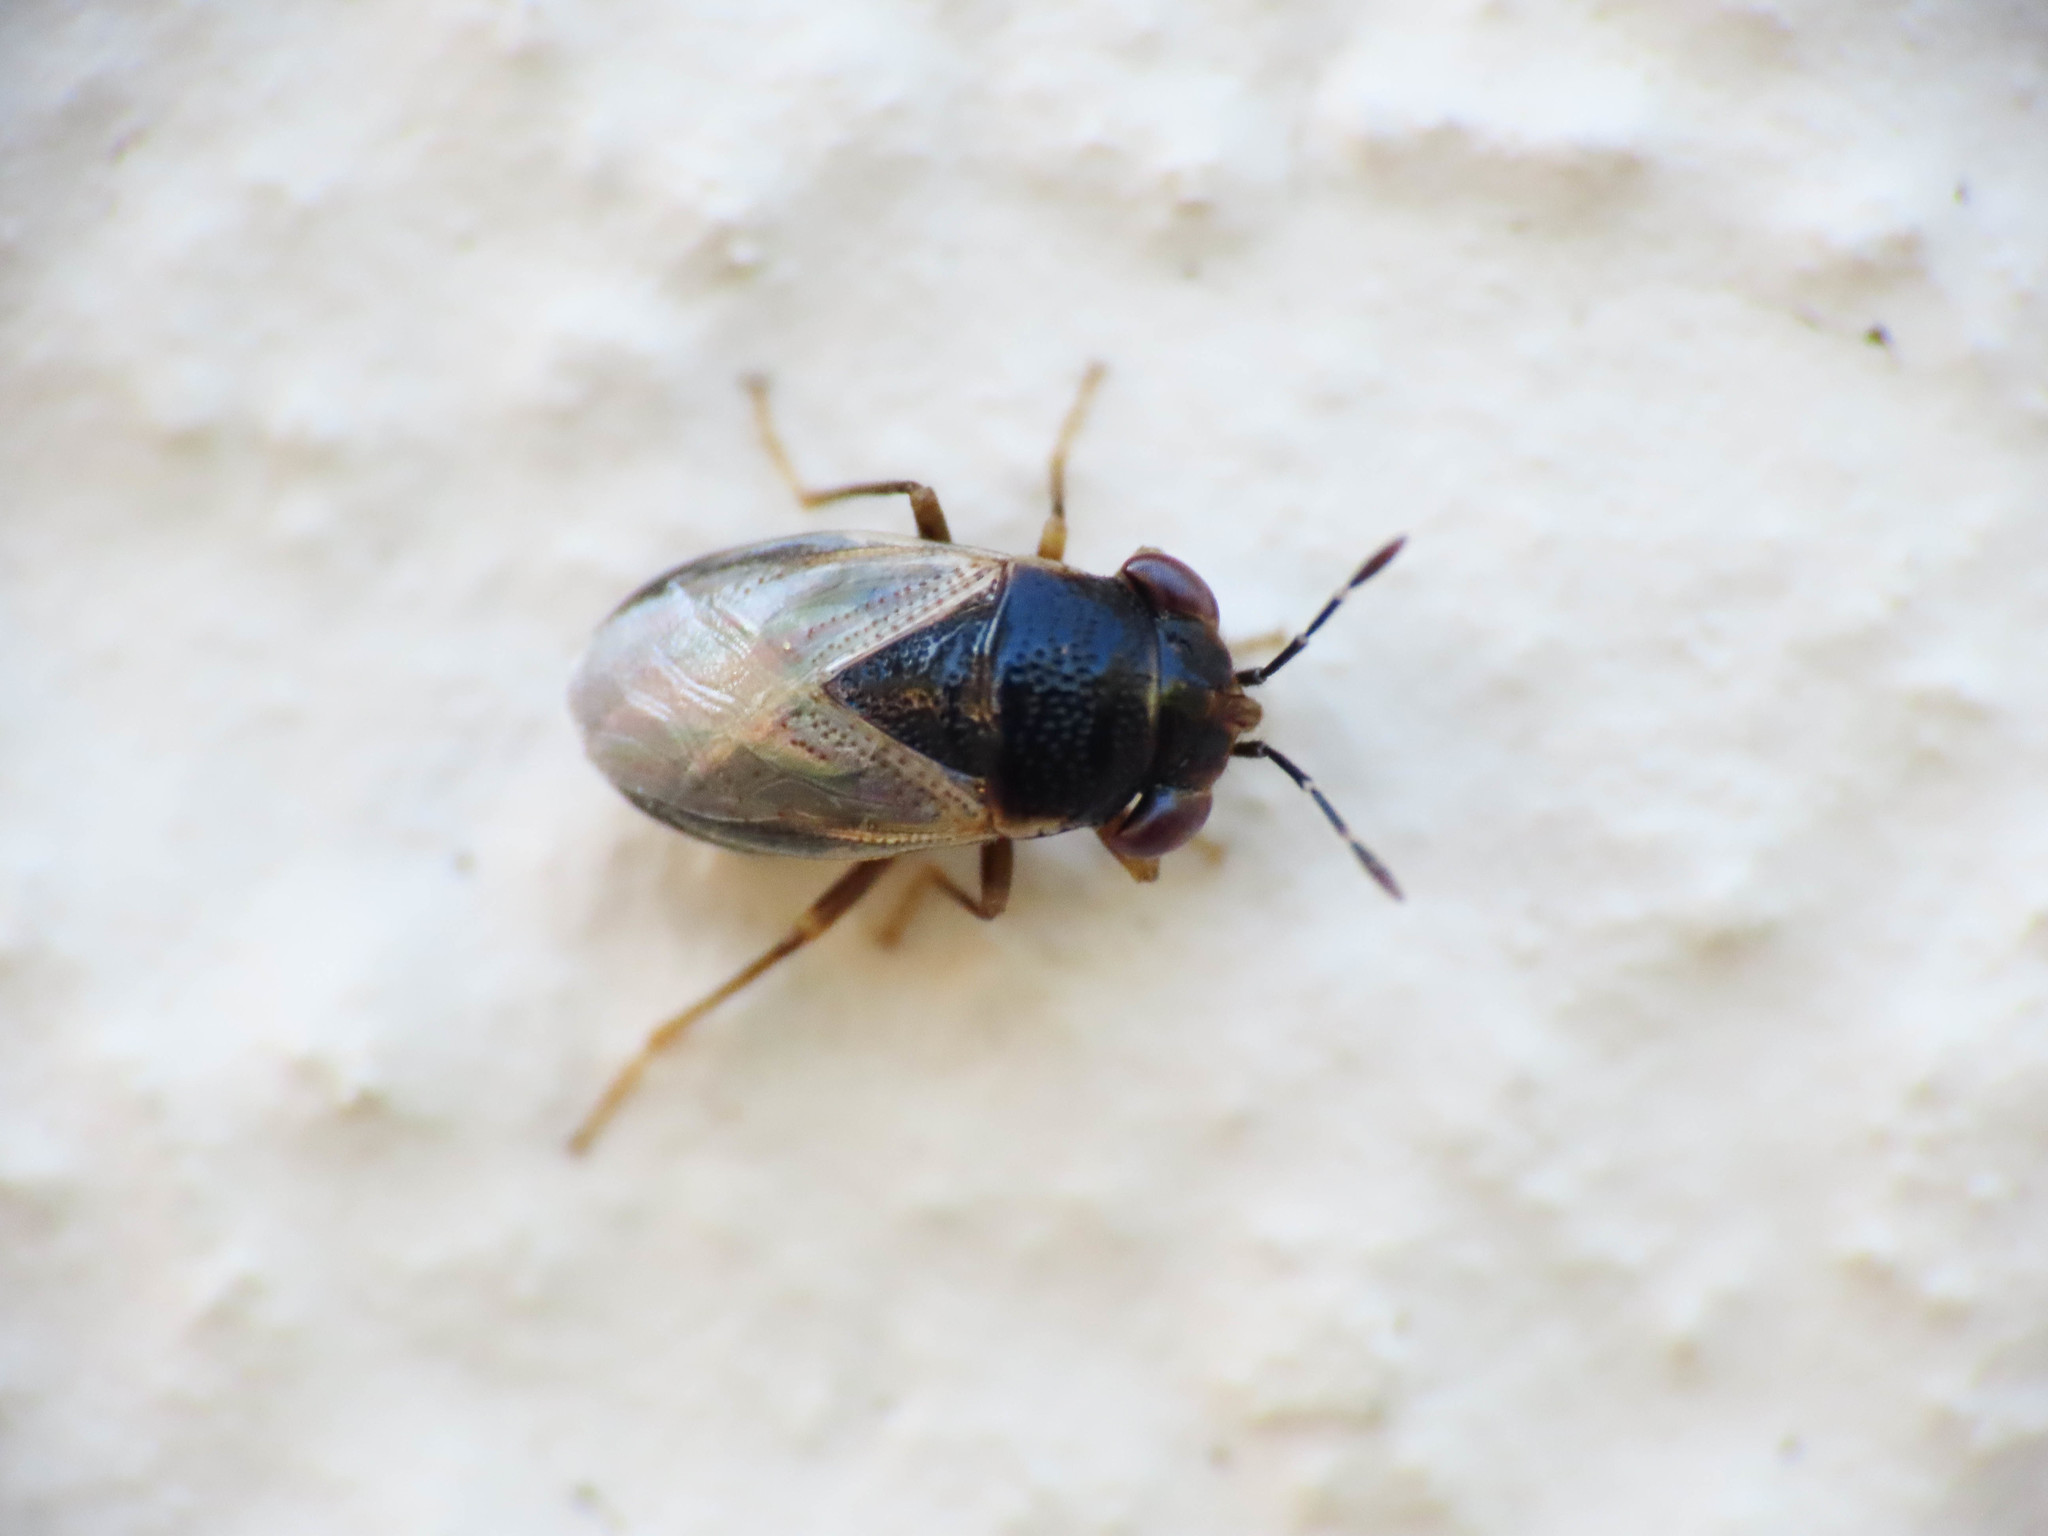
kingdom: Animalia
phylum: Arthropoda
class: Insecta
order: Hemiptera
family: Geocoridae
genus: Geocoris
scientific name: Geocoris pallidipennis
